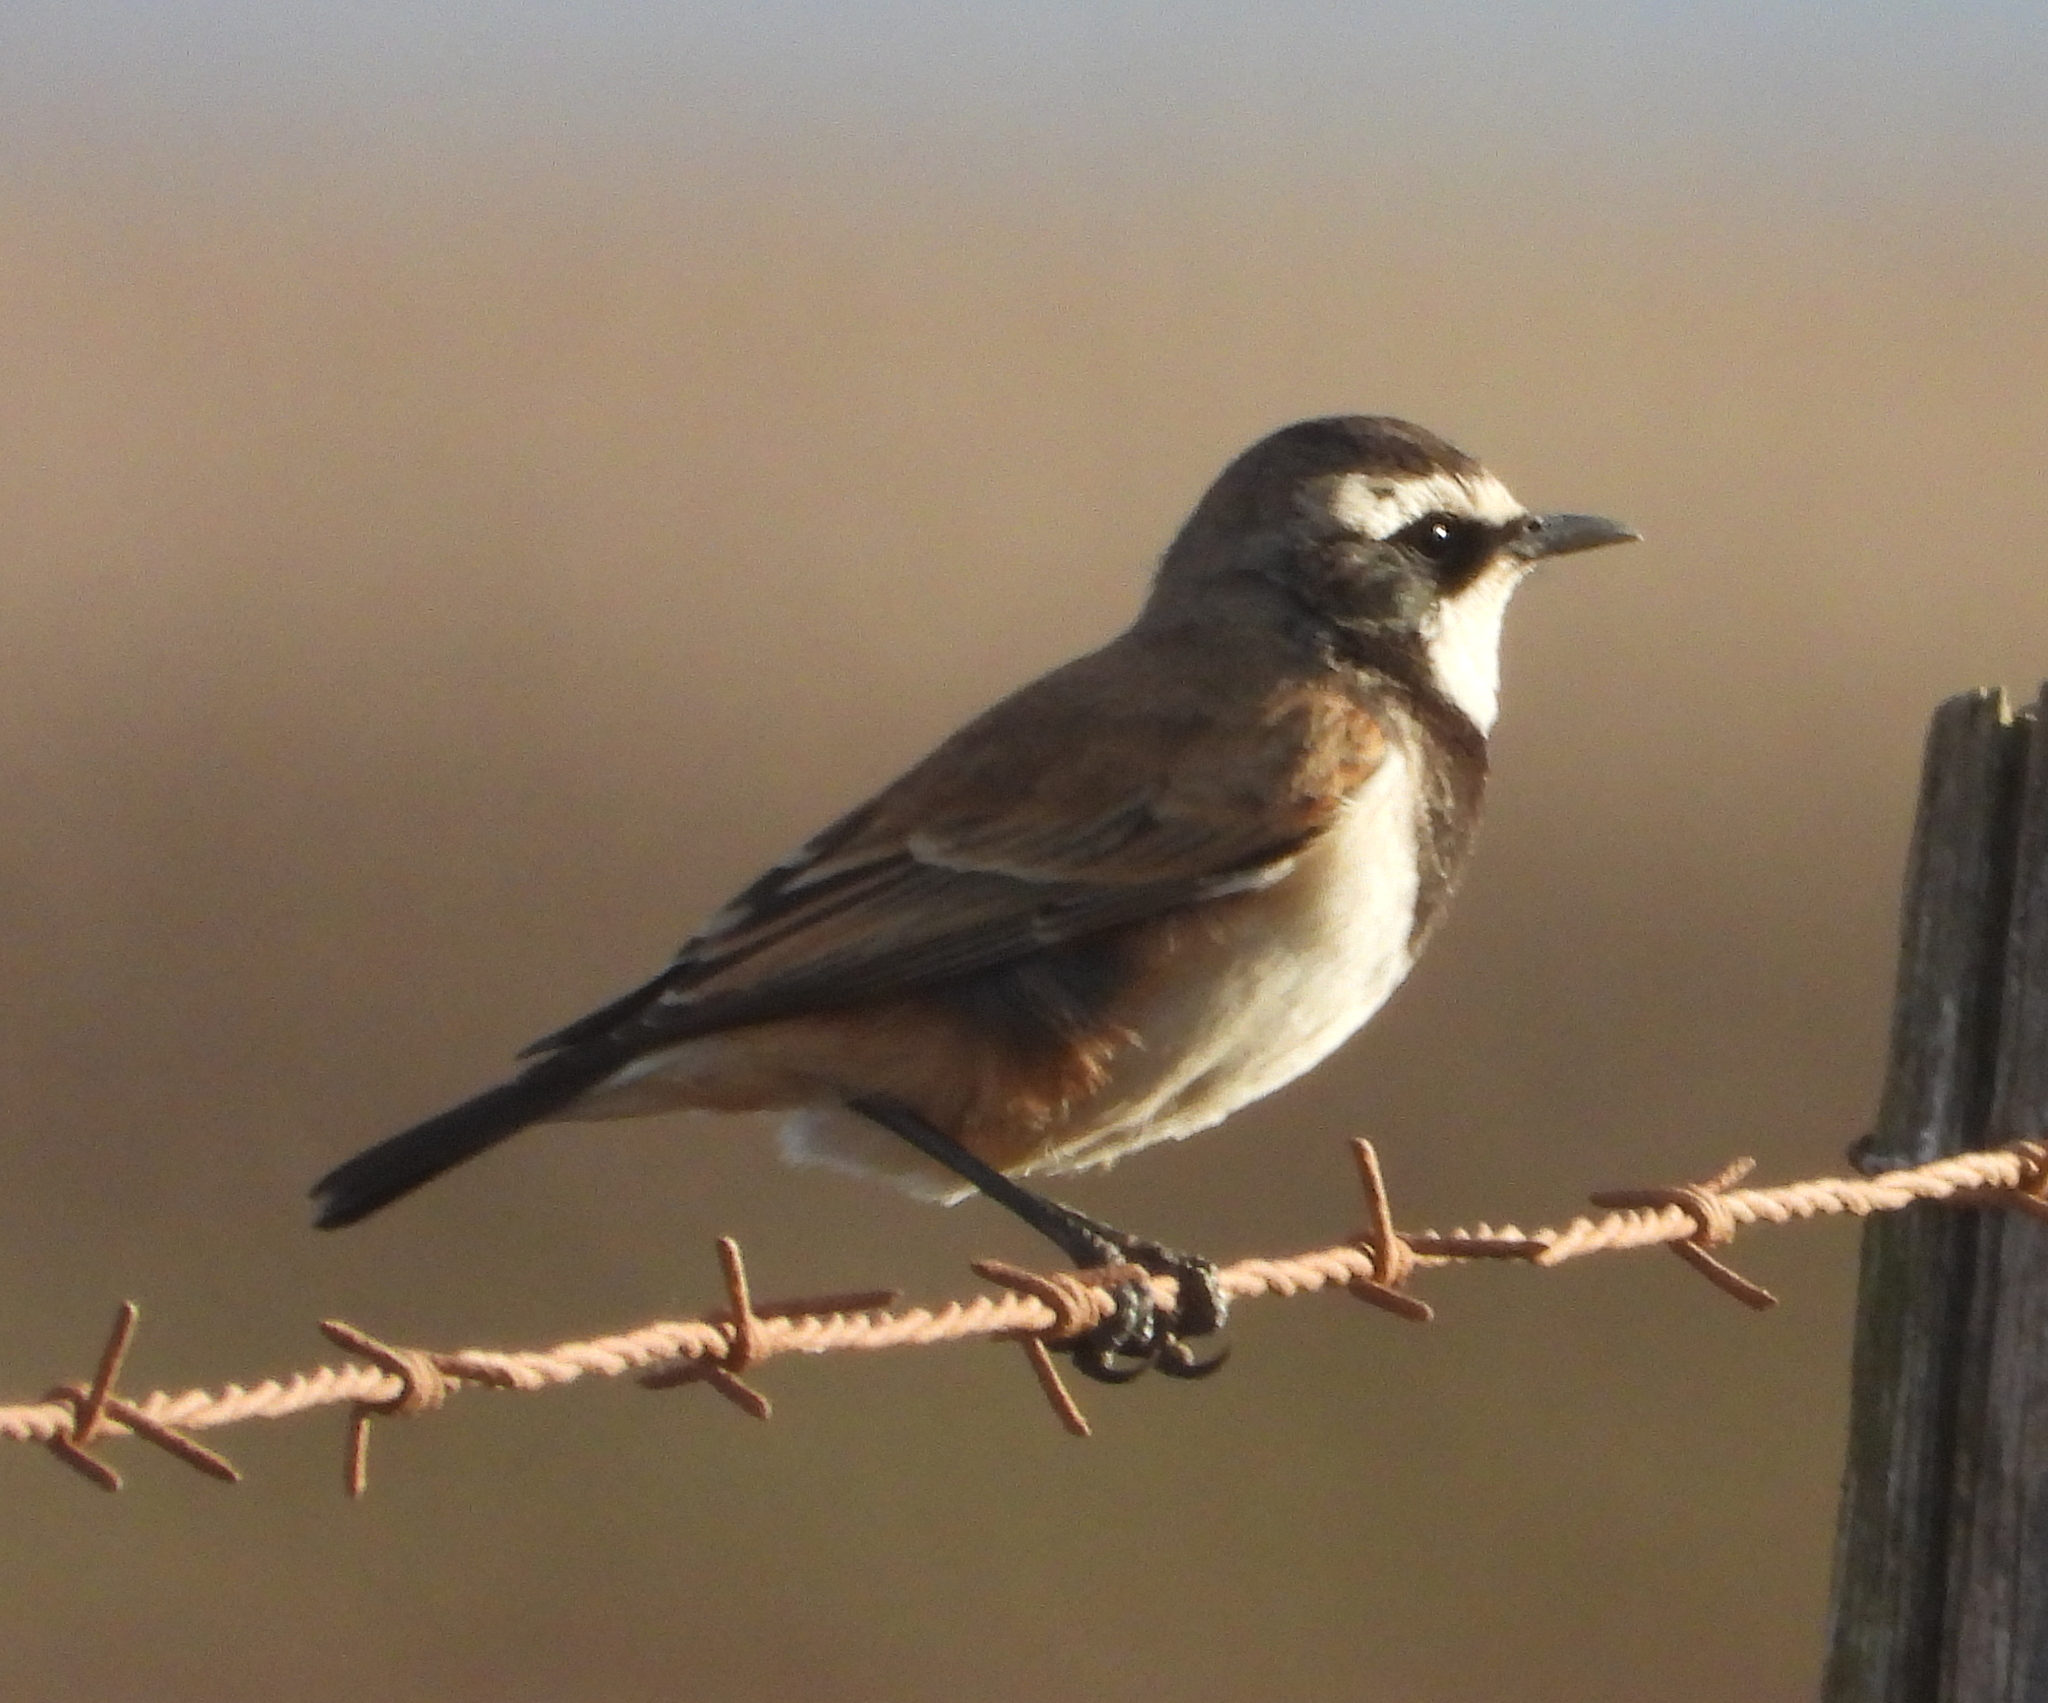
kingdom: Animalia
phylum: Chordata
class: Aves
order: Passeriformes
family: Muscicapidae
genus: Oenanthe
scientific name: Oenanthe pileata
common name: Capped wheatear
